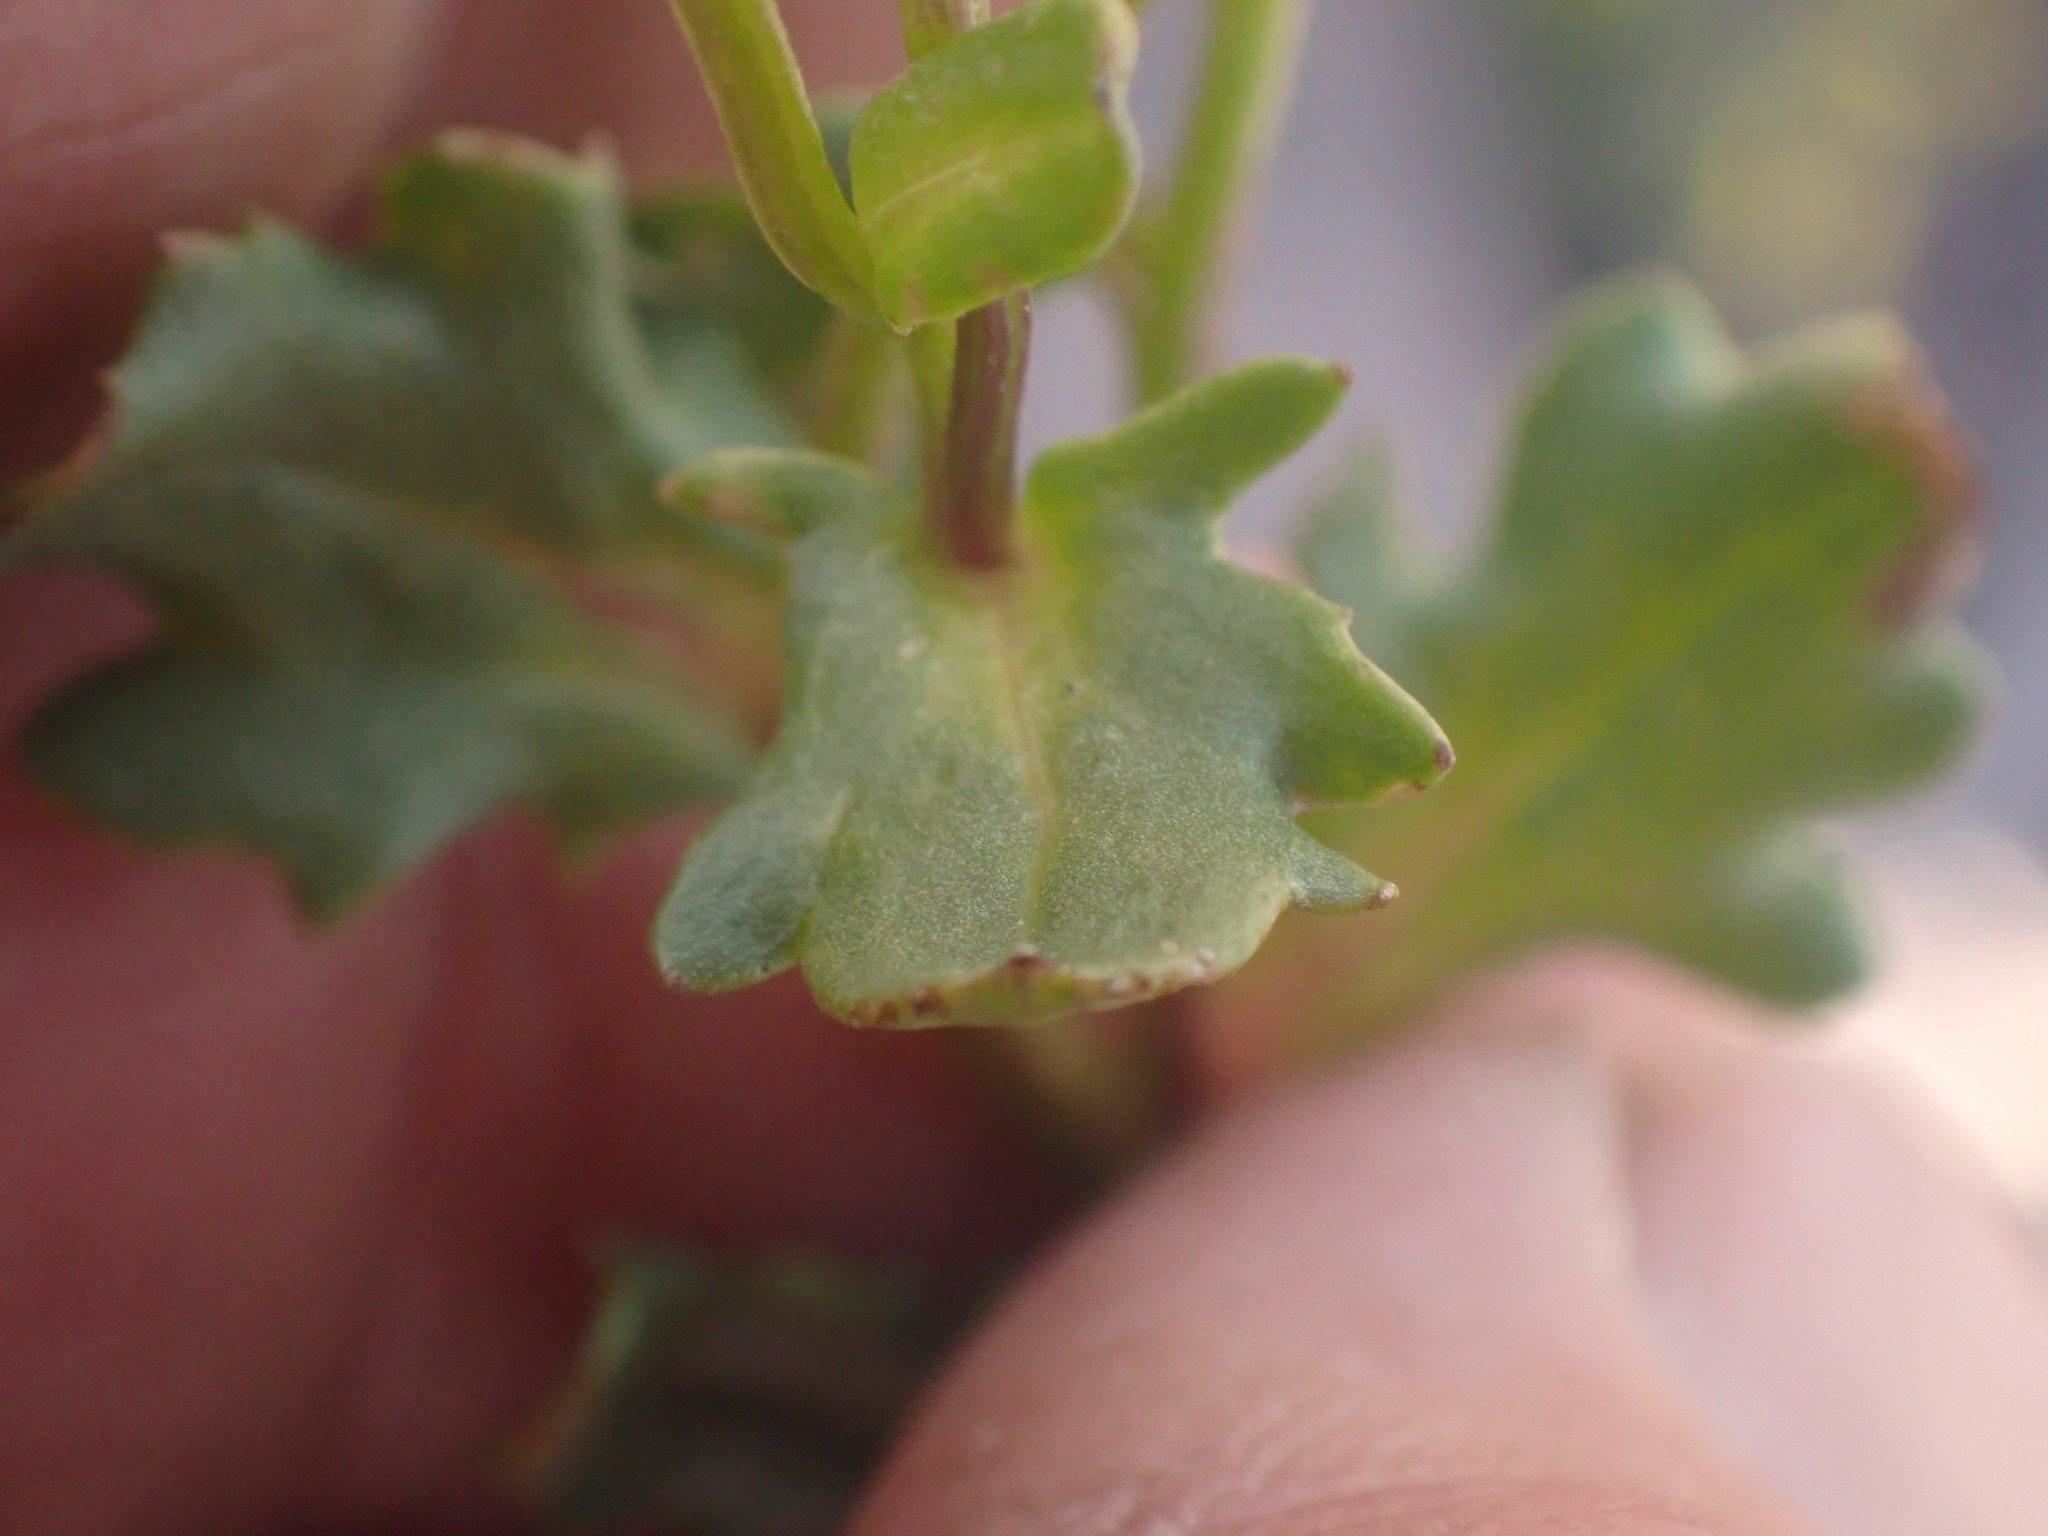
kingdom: Plantae
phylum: Tracheophyta
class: Magnoliopsida
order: Asterales
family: Asteraceae
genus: Senecio
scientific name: Senecio fremontii
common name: Fremont's groundsel
